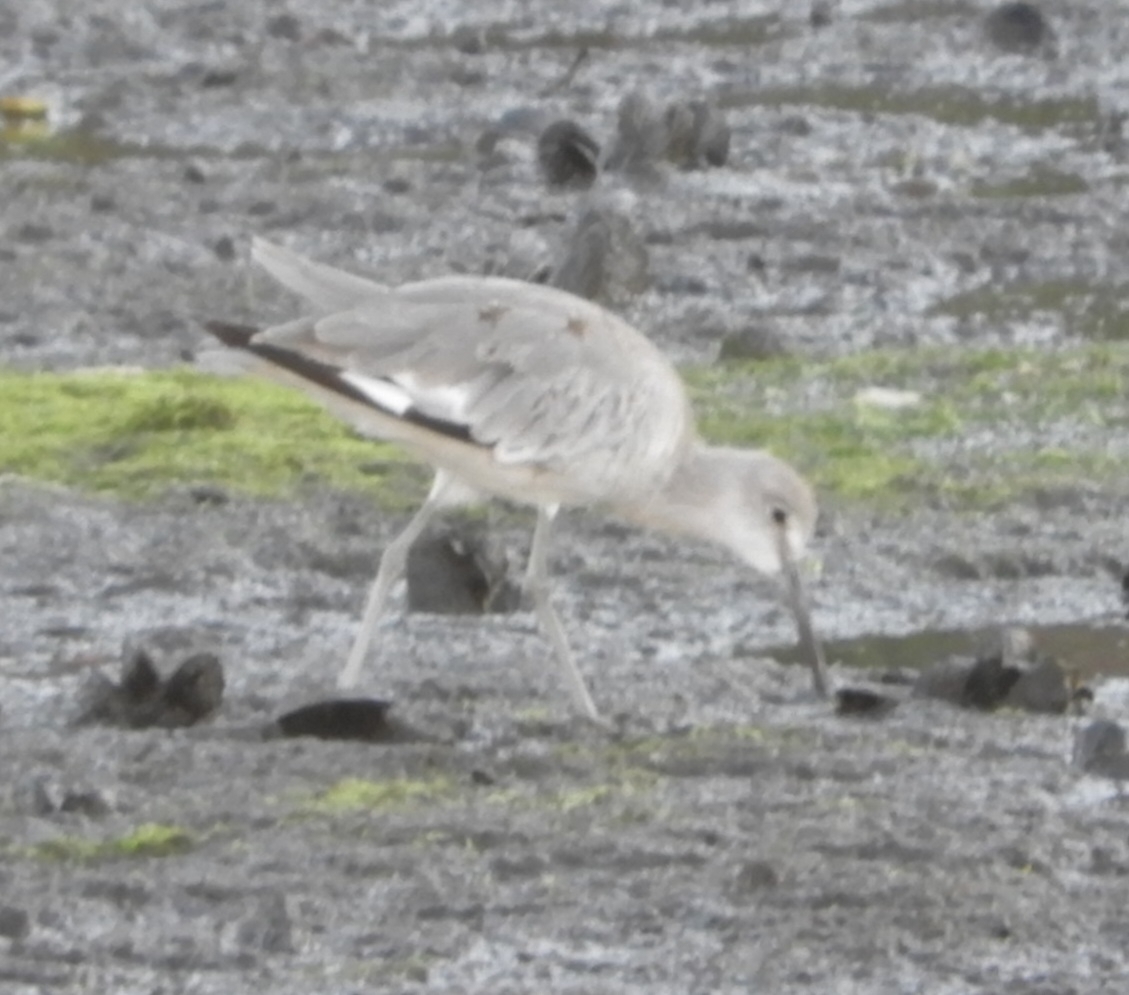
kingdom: Animalia
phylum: Chordata
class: Aves
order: Charadriiformes
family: Scolopacidae
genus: Tringa
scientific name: Tringa semipalmata
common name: Willet
